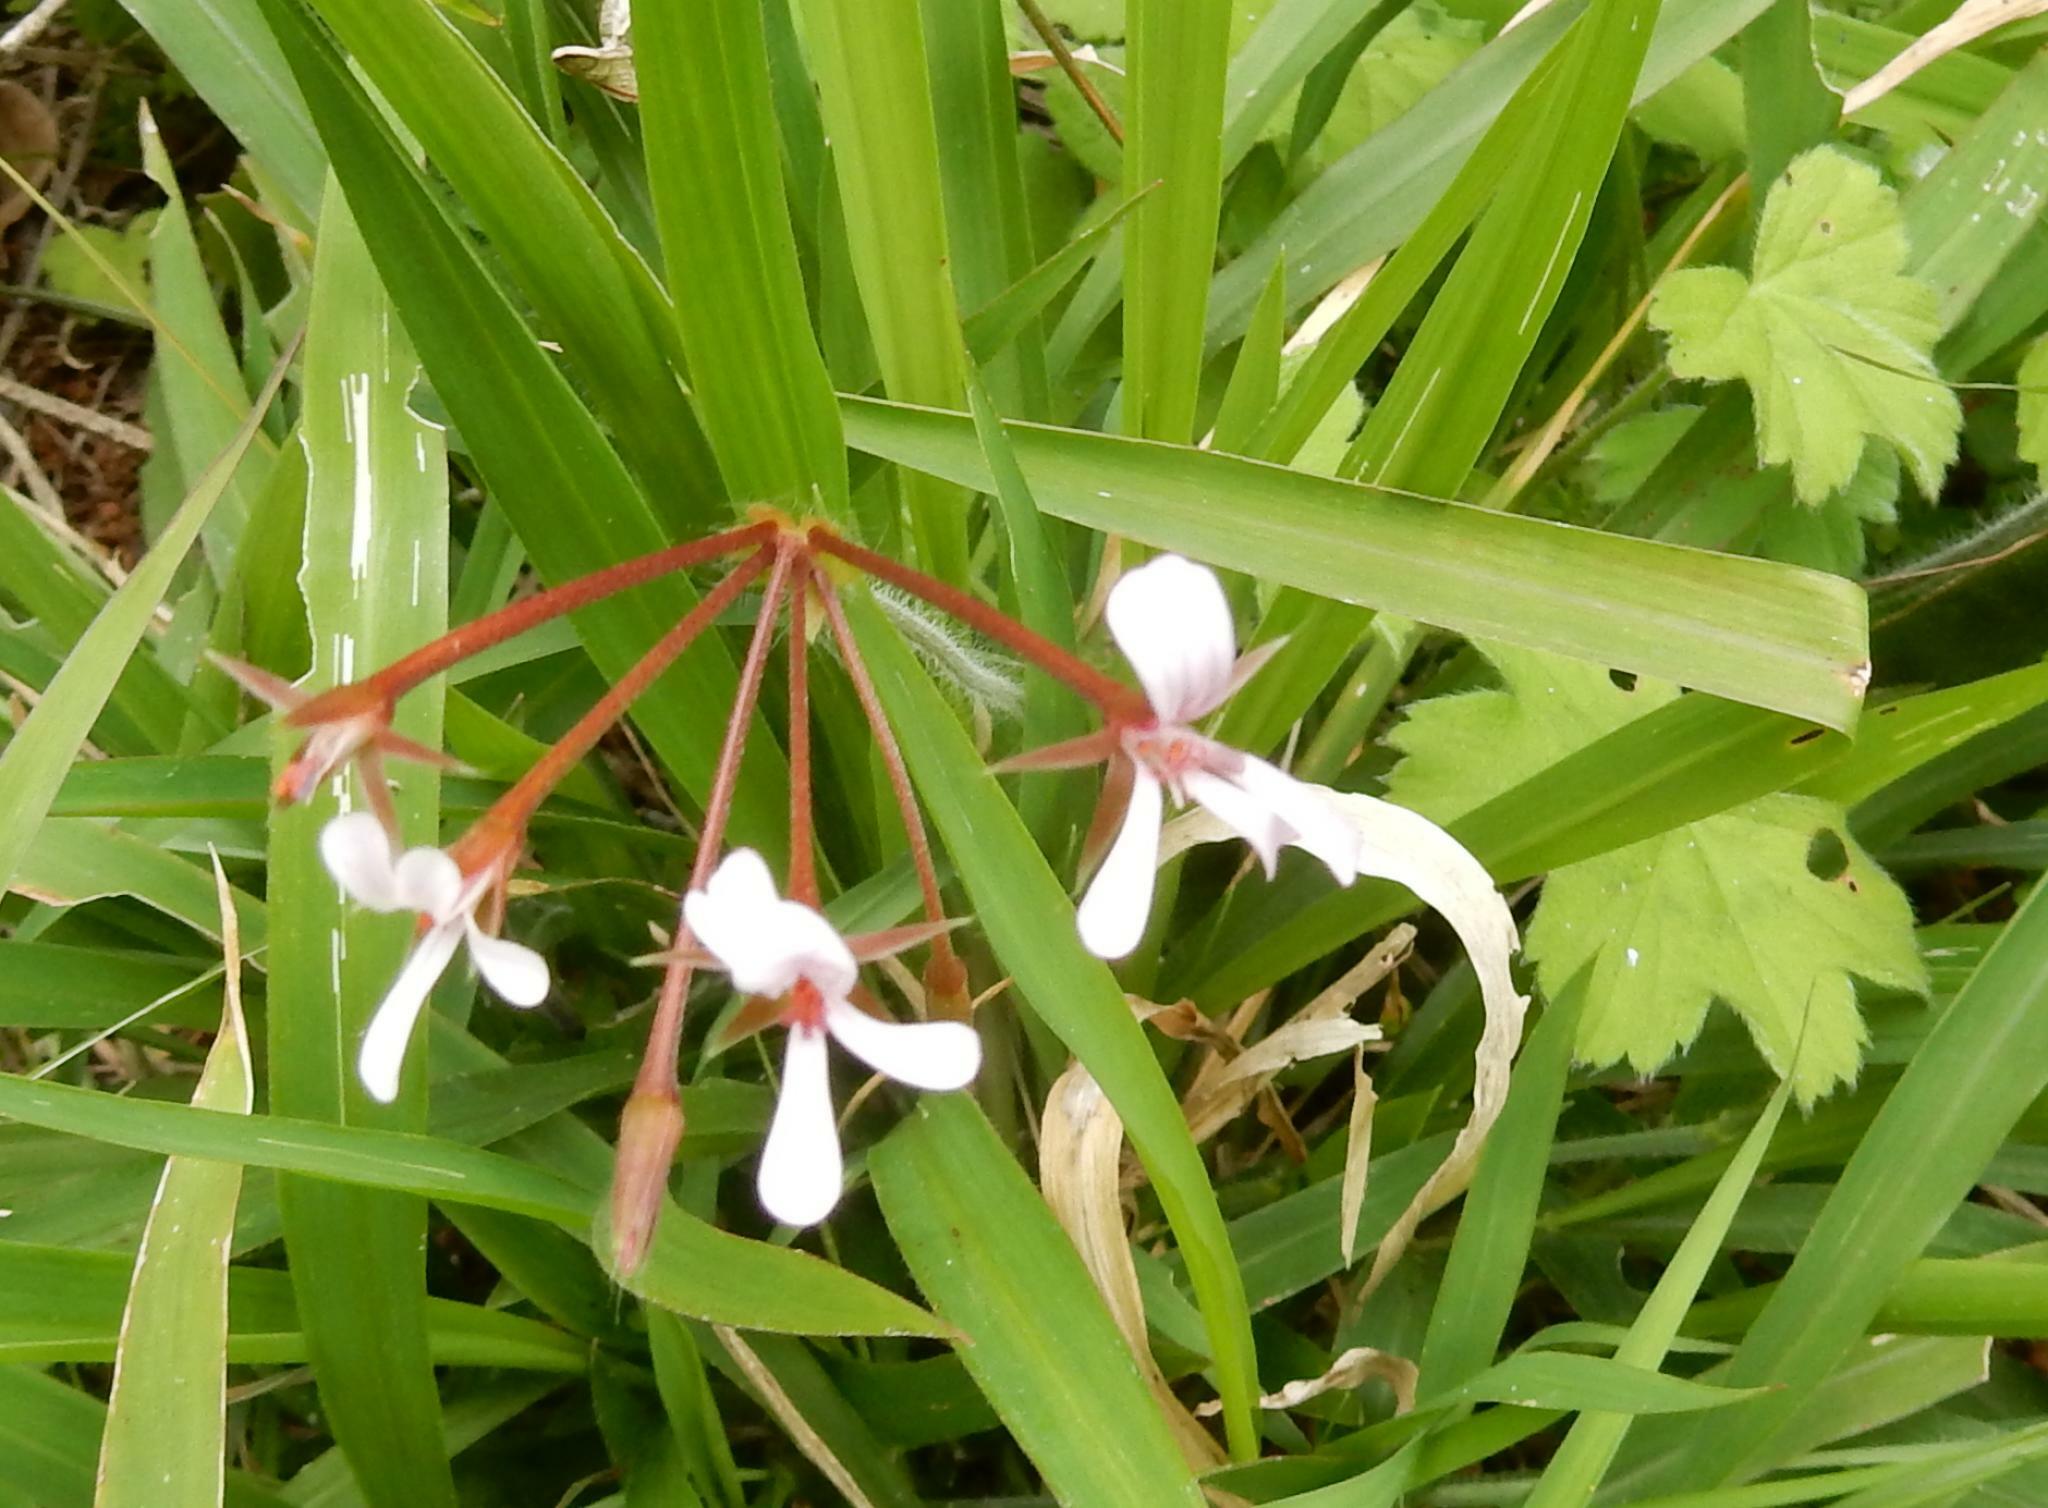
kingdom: Plantae
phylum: Tracheophyta
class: Magnoliopsida
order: Geraniales
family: Geraniaceae
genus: Pelargonium
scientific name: Pelargonium alchemilloides
